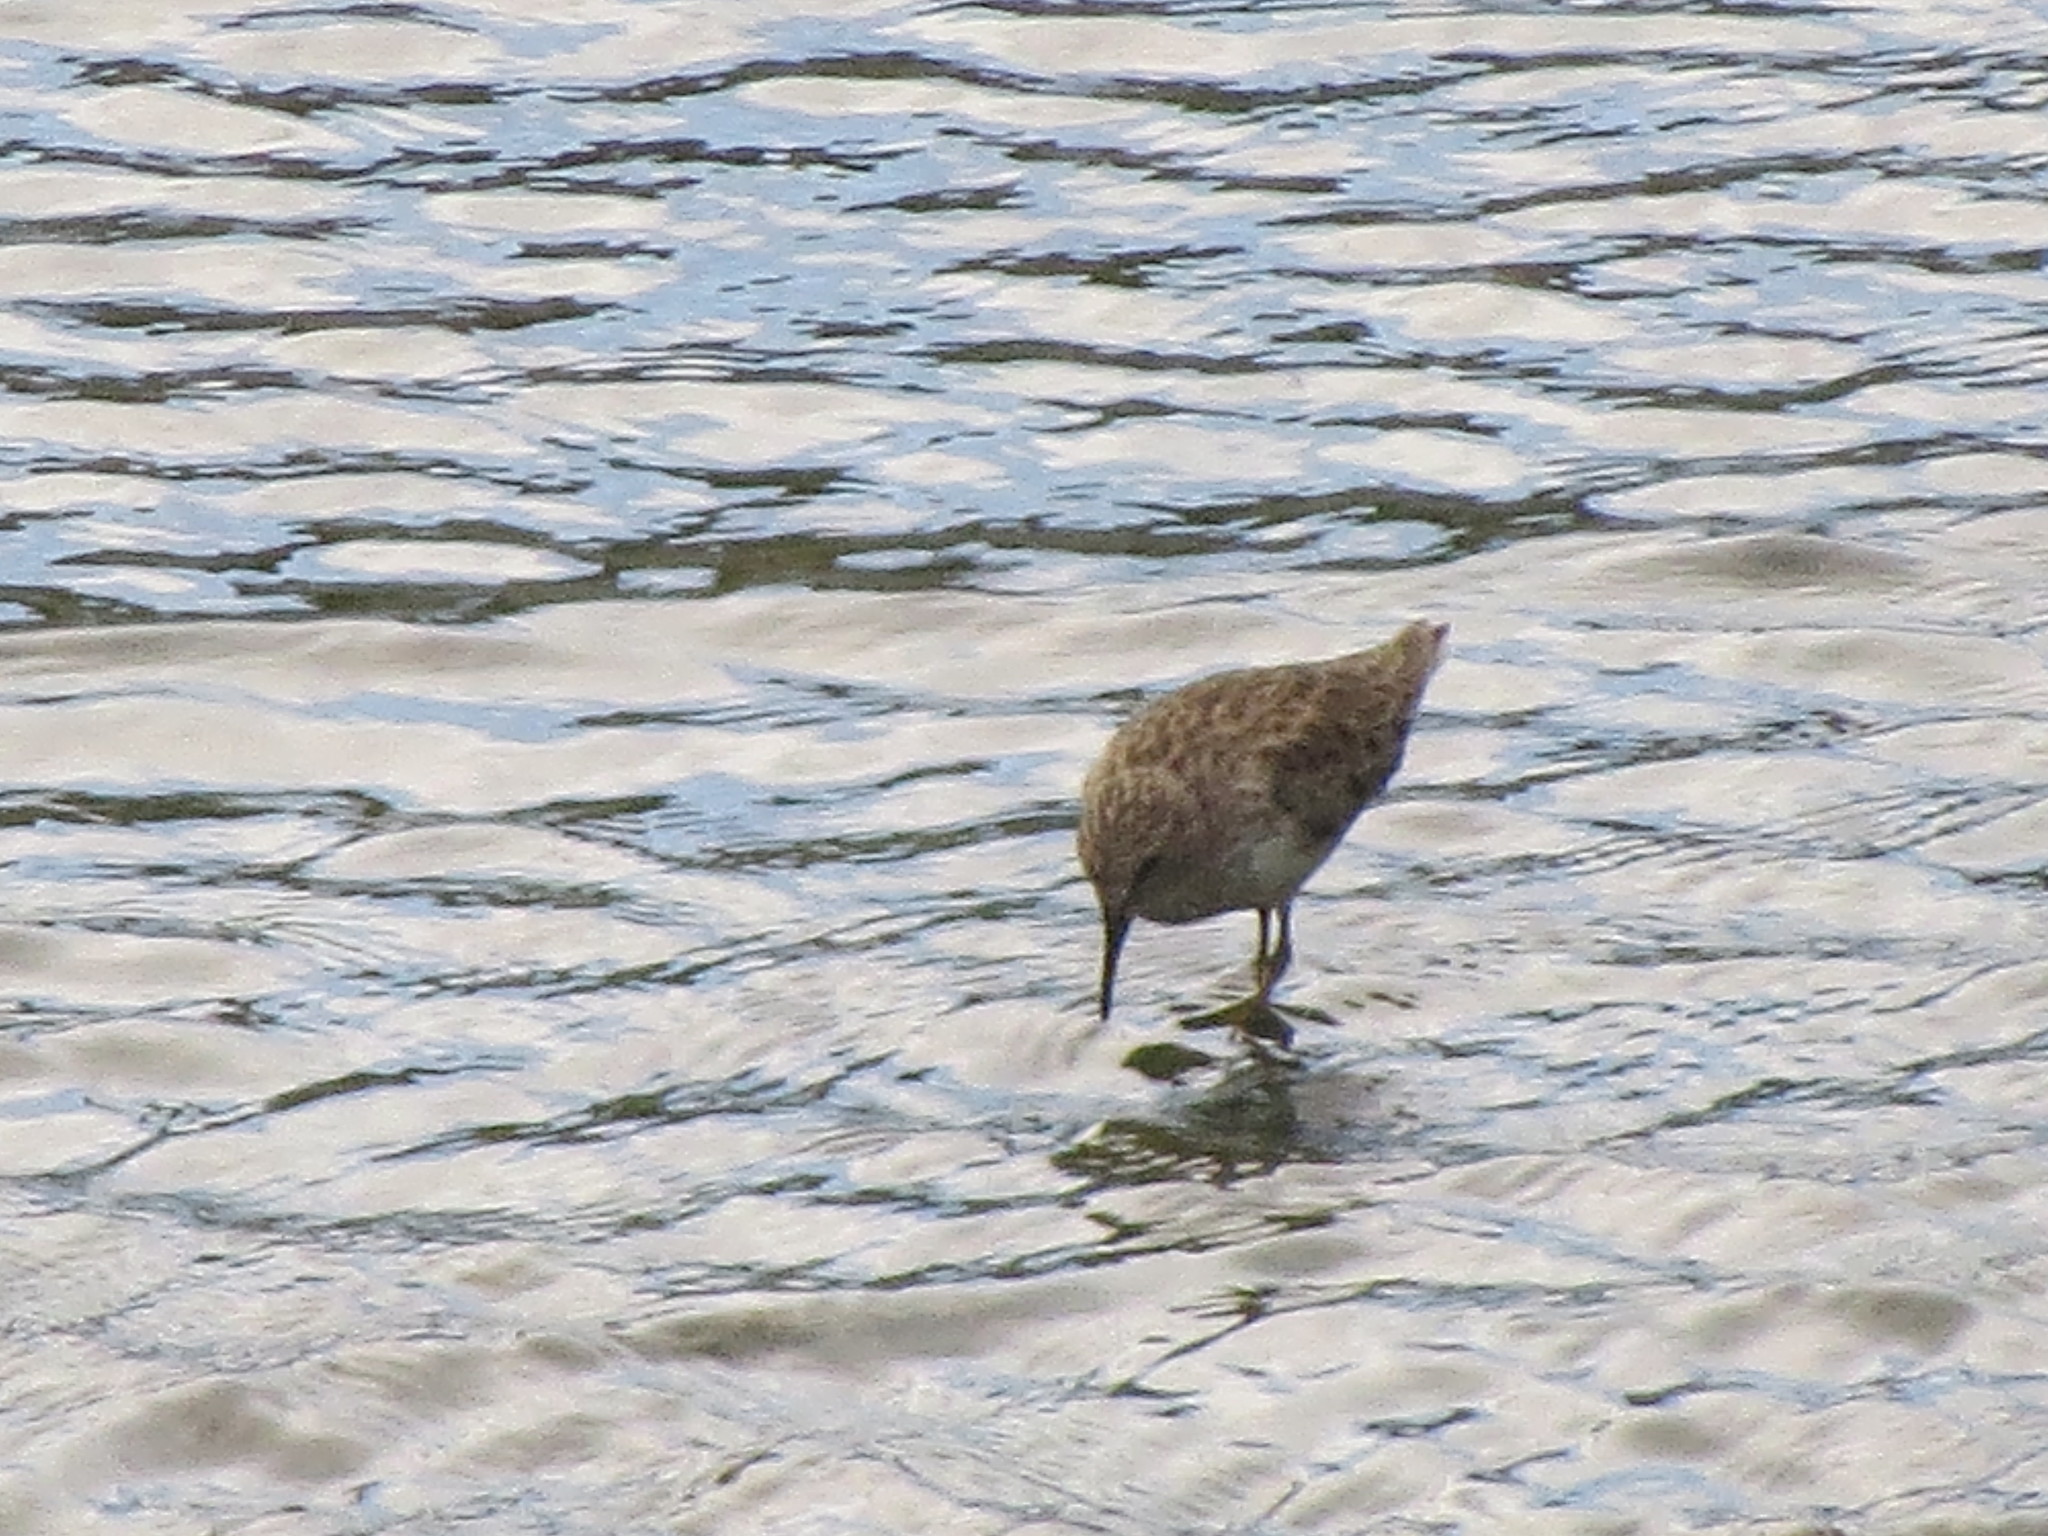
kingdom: Animalia
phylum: Chordata
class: Aves
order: Charadriiformes
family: Scolopacidae
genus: Calidris
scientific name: Calidris minutilla
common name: Least sandpiper
